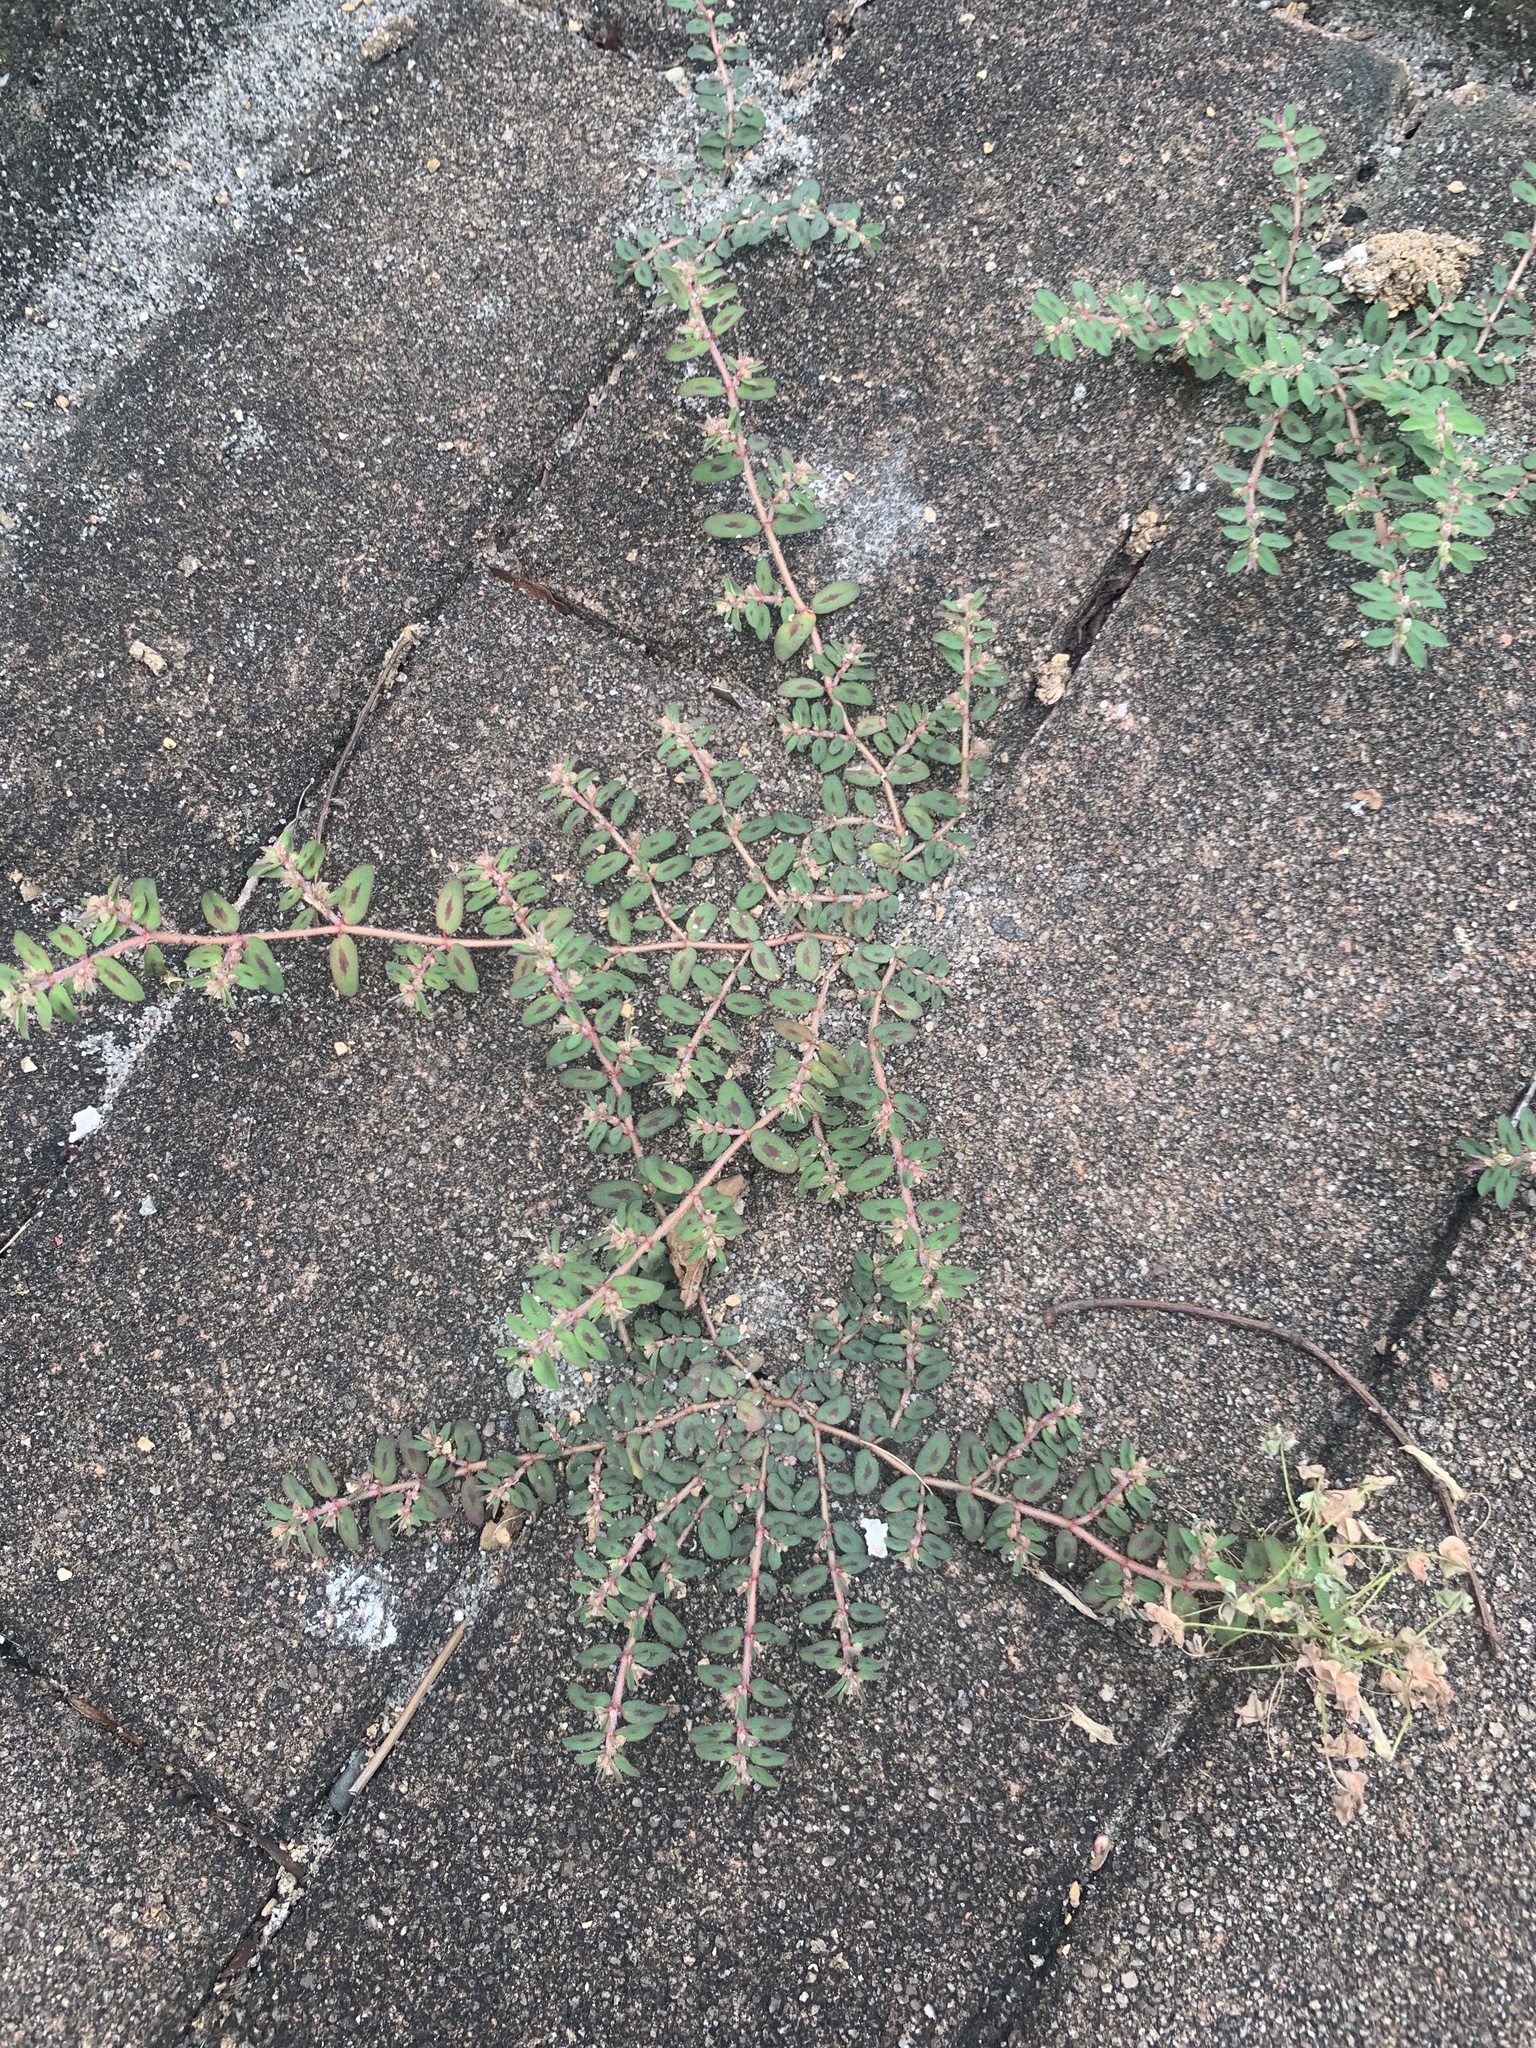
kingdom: Plantae
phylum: Tracheophyta
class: Magnoliopsida
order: Malpighiales
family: Euphorbiaceae
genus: Euphorbia
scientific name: Euphorbia maculata
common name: Spotted spurge
